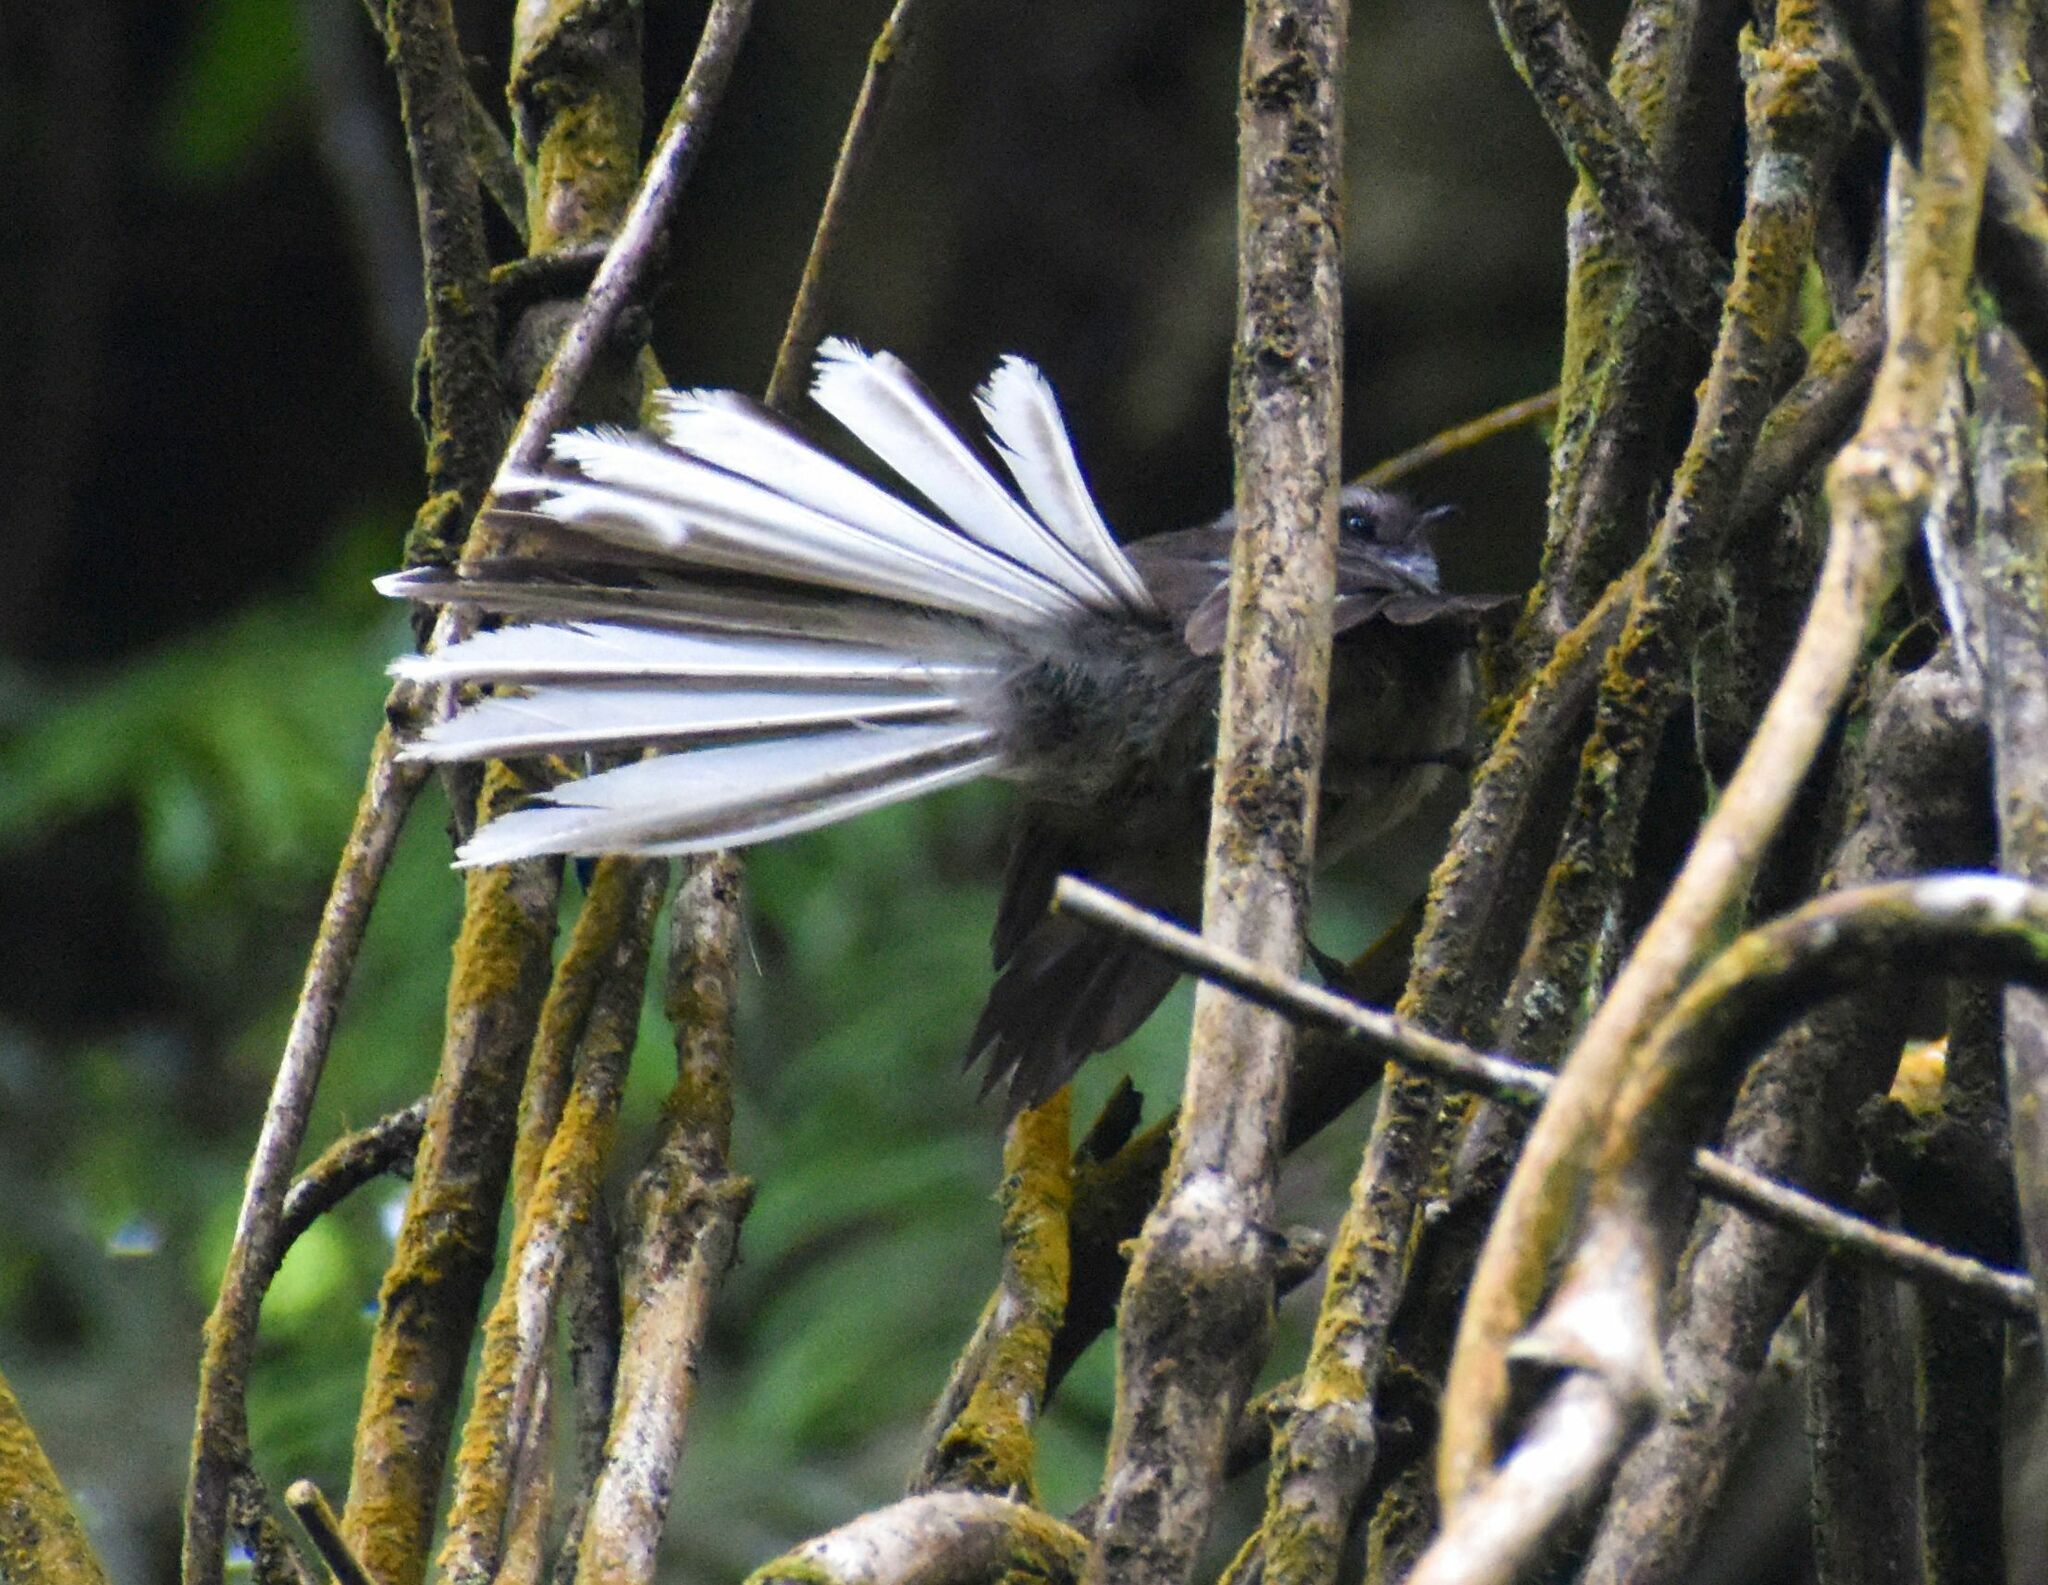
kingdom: Animalia
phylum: Chordata
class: Aves
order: Passeriformes
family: Rhipiduridae
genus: Rhipidura
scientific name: Rhipidura fuliginosa
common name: New zealand fantail
